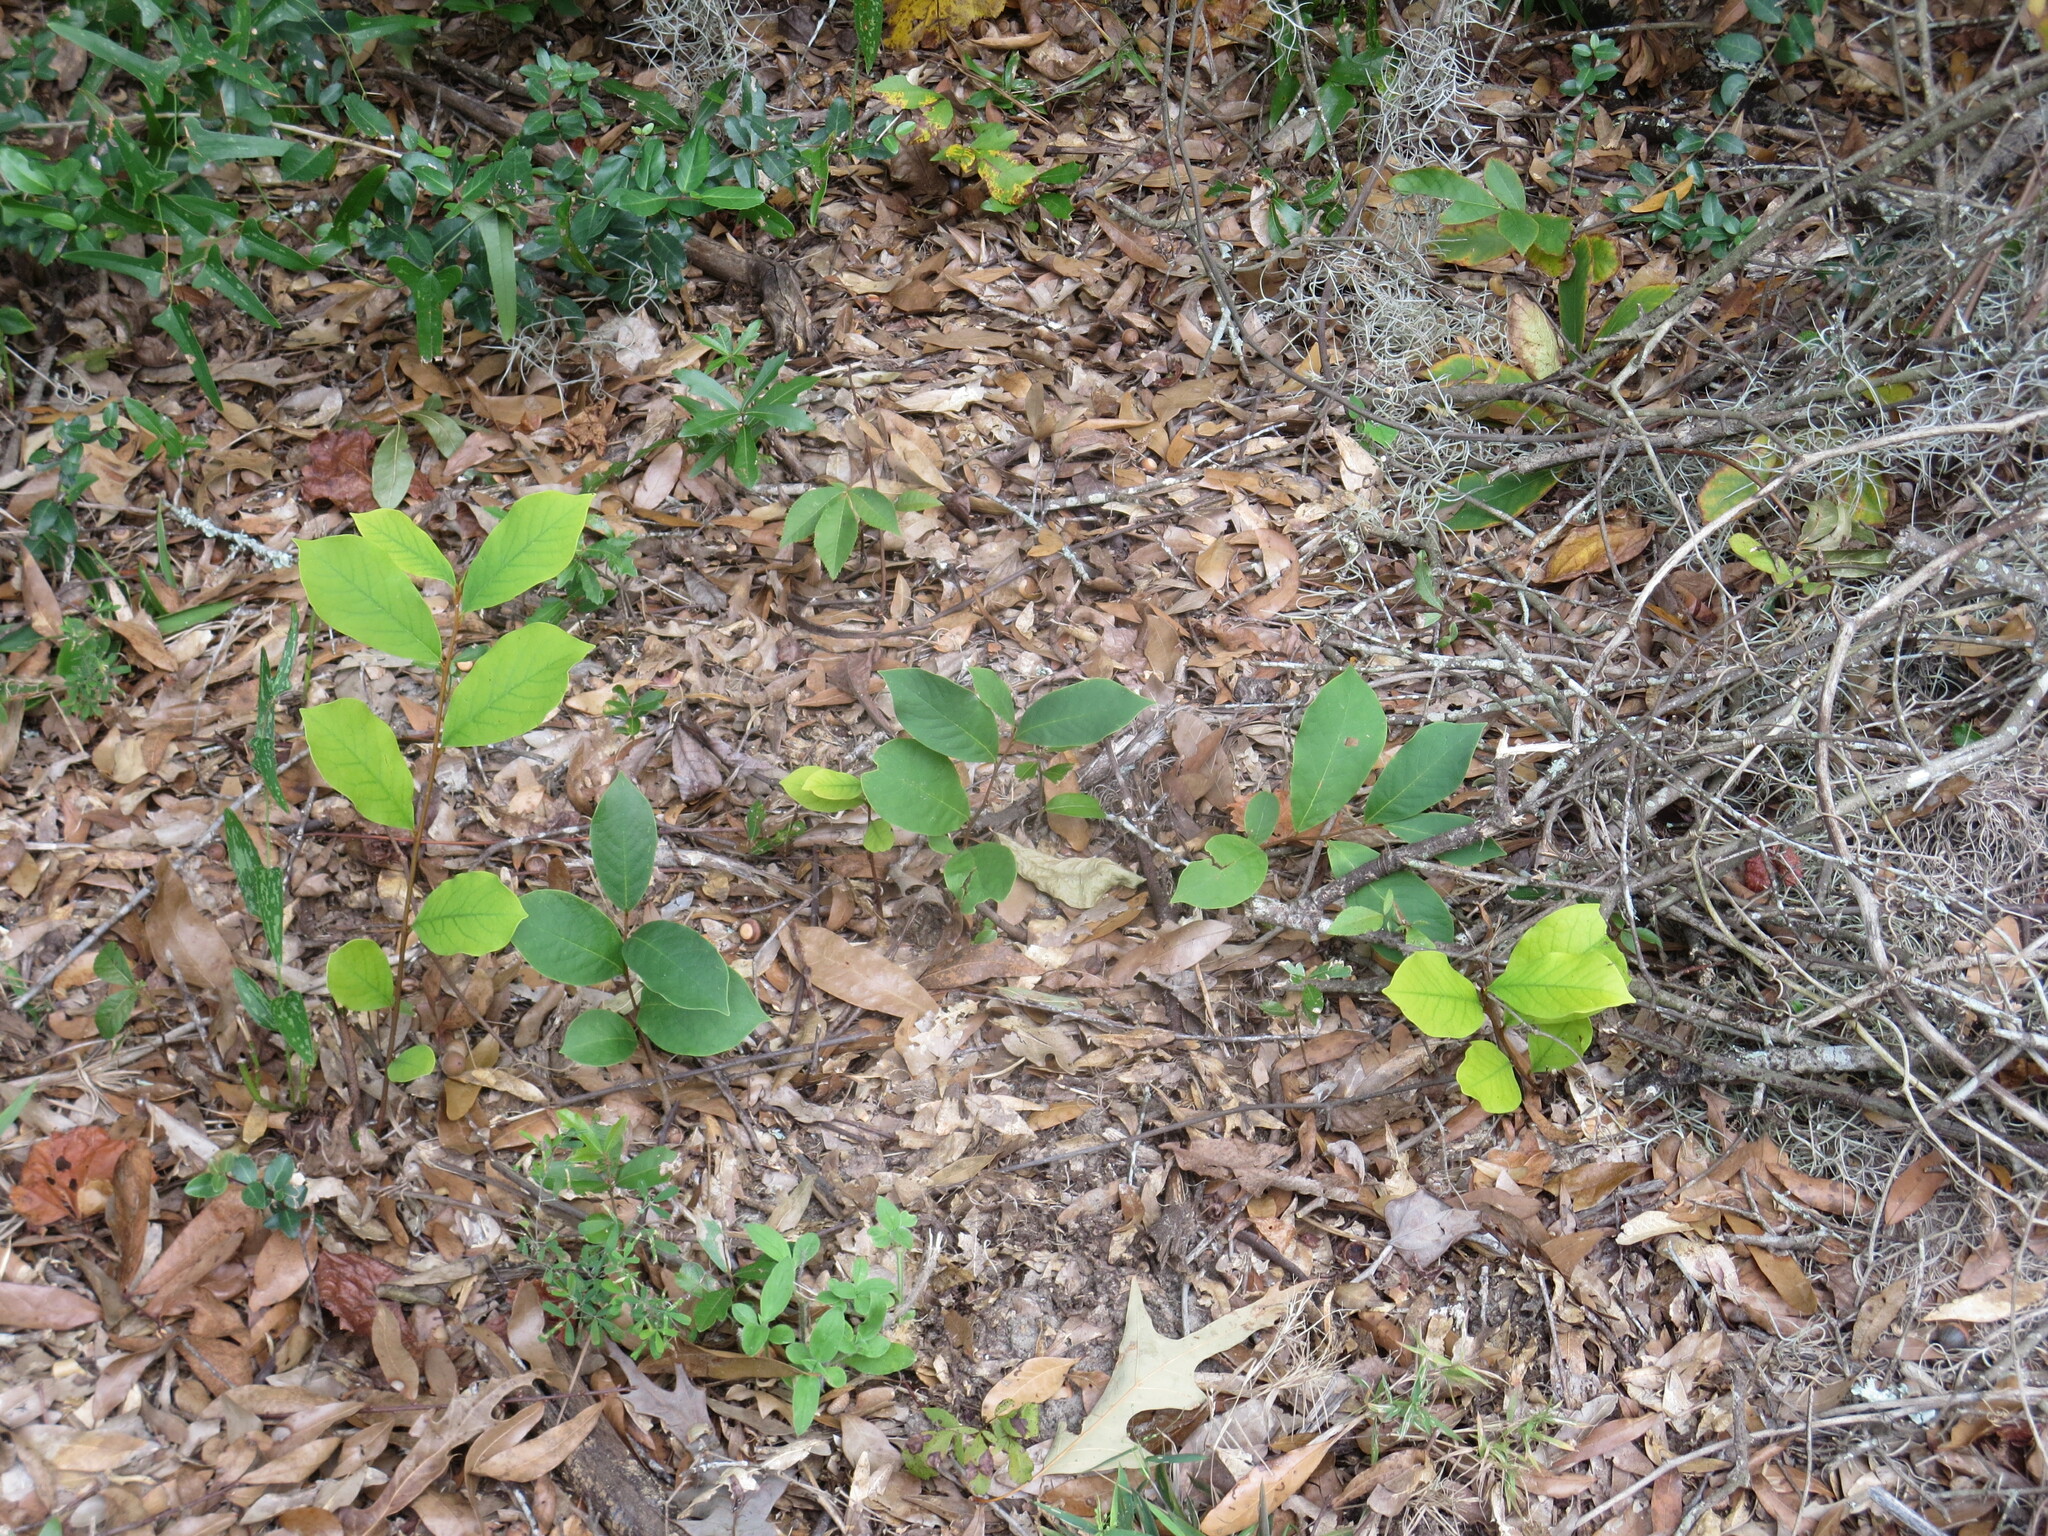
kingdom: Plantae
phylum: Tracheophyta
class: Magnoliopsida
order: Magnoliales
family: Annonaceae
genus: Asimina
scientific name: Asimina parviflora
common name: Dwarf pawpaw
